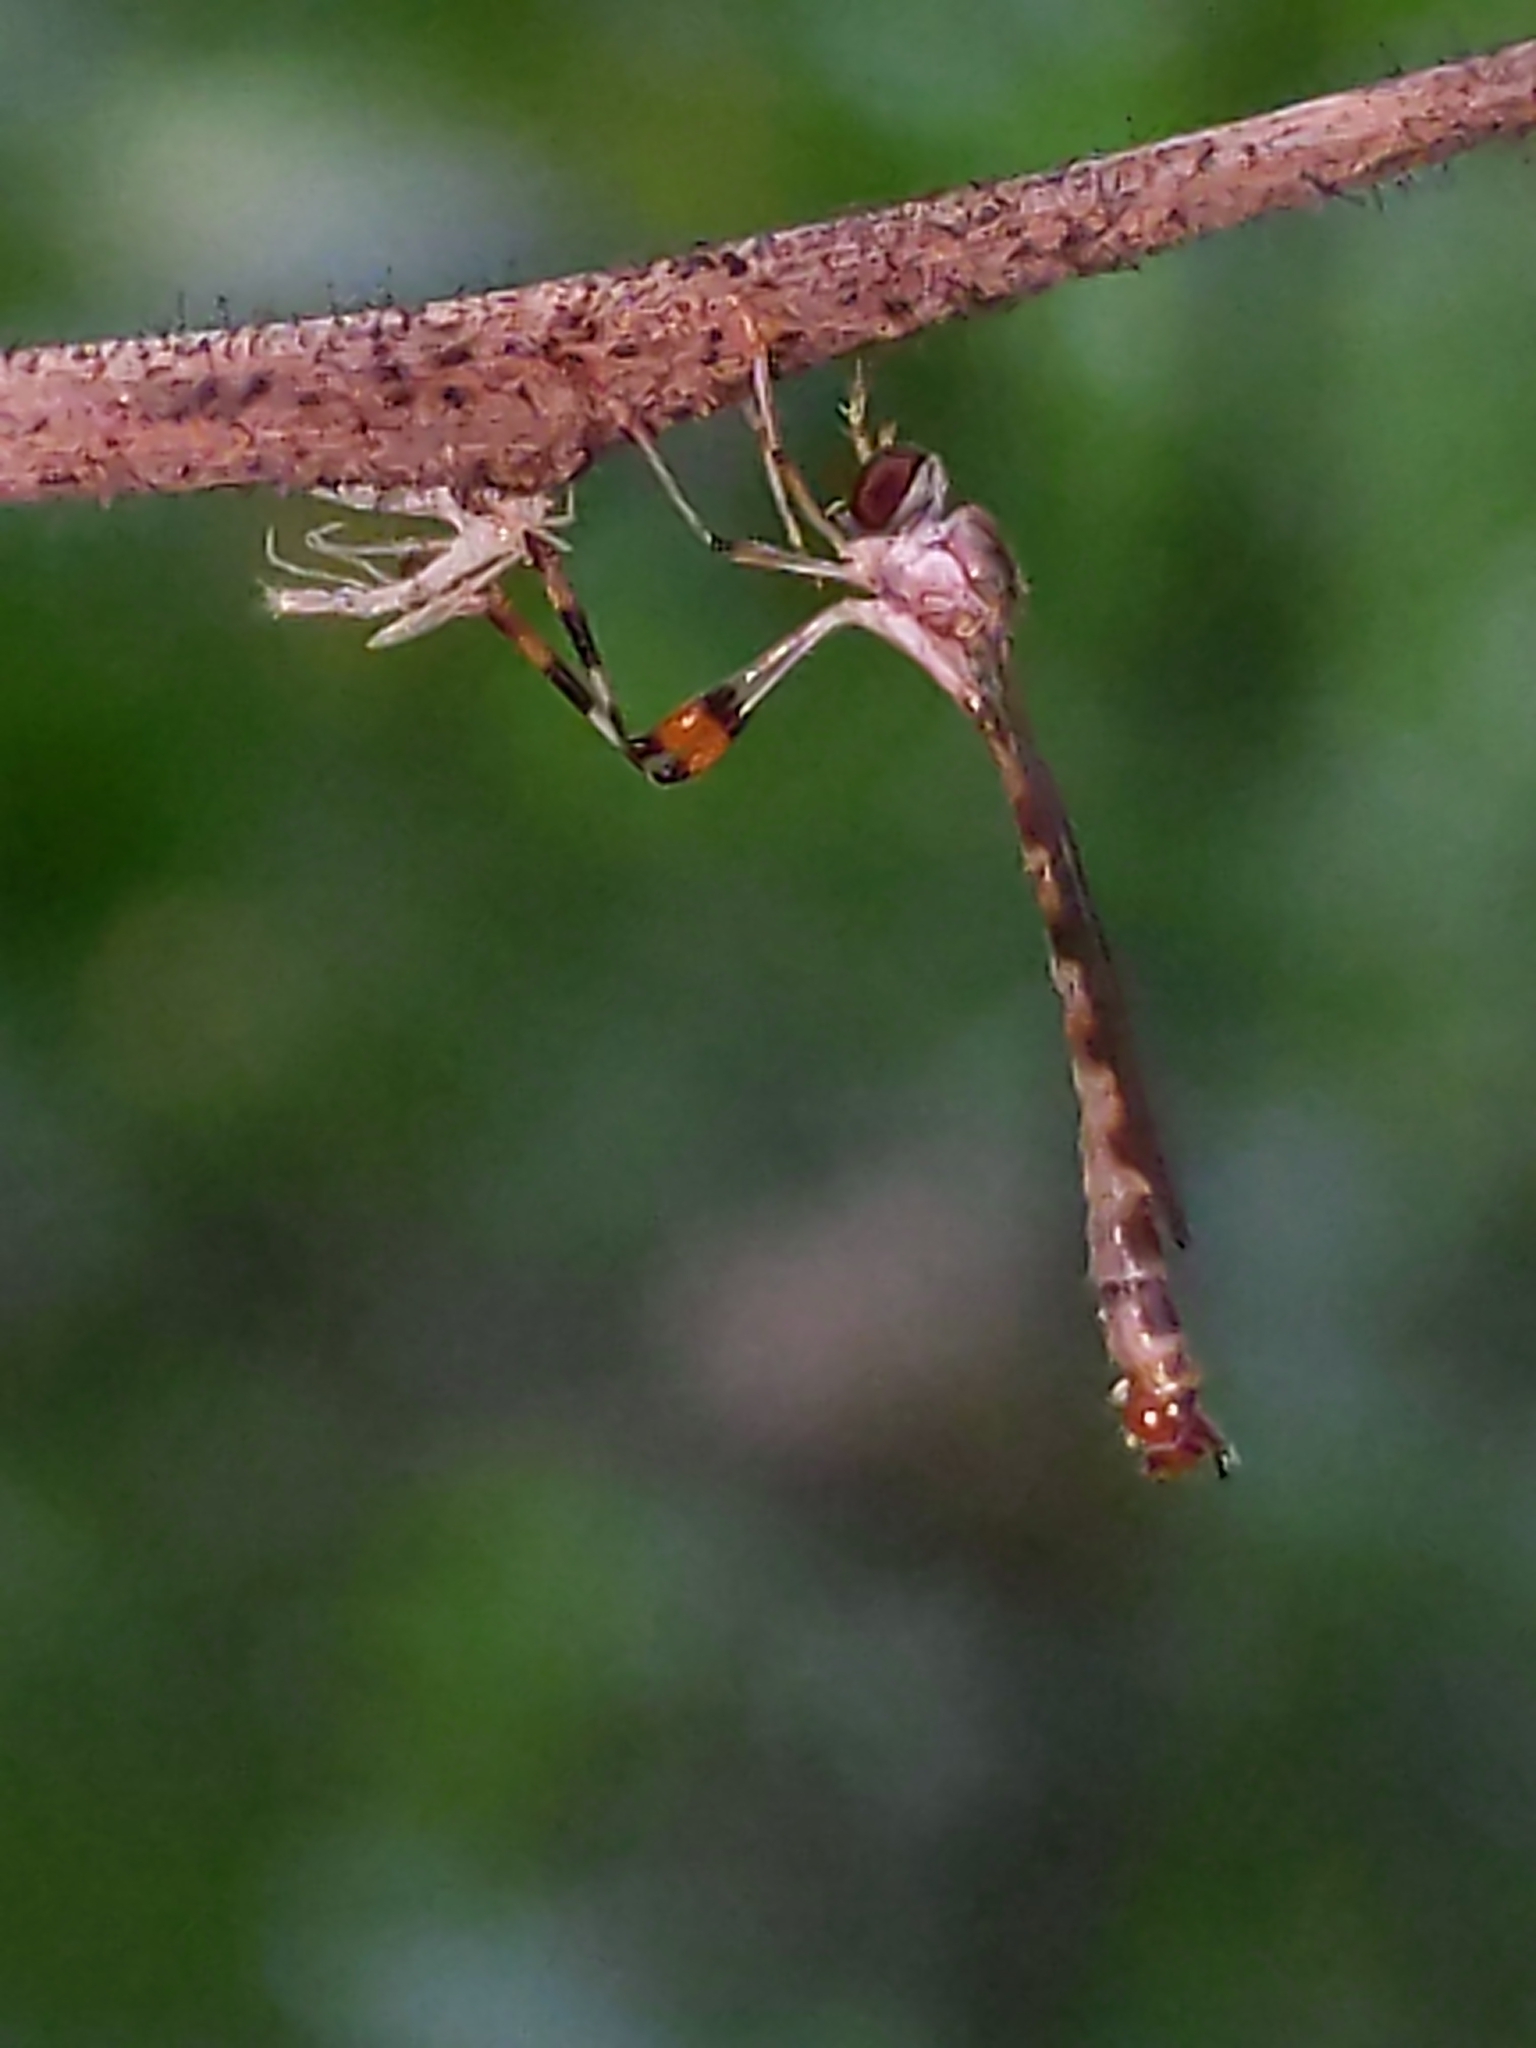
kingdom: Animalia
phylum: Arthropoda
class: Insecta
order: Diptera
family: Asilidae
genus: Psilonyx
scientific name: Psilonyx annulatus
